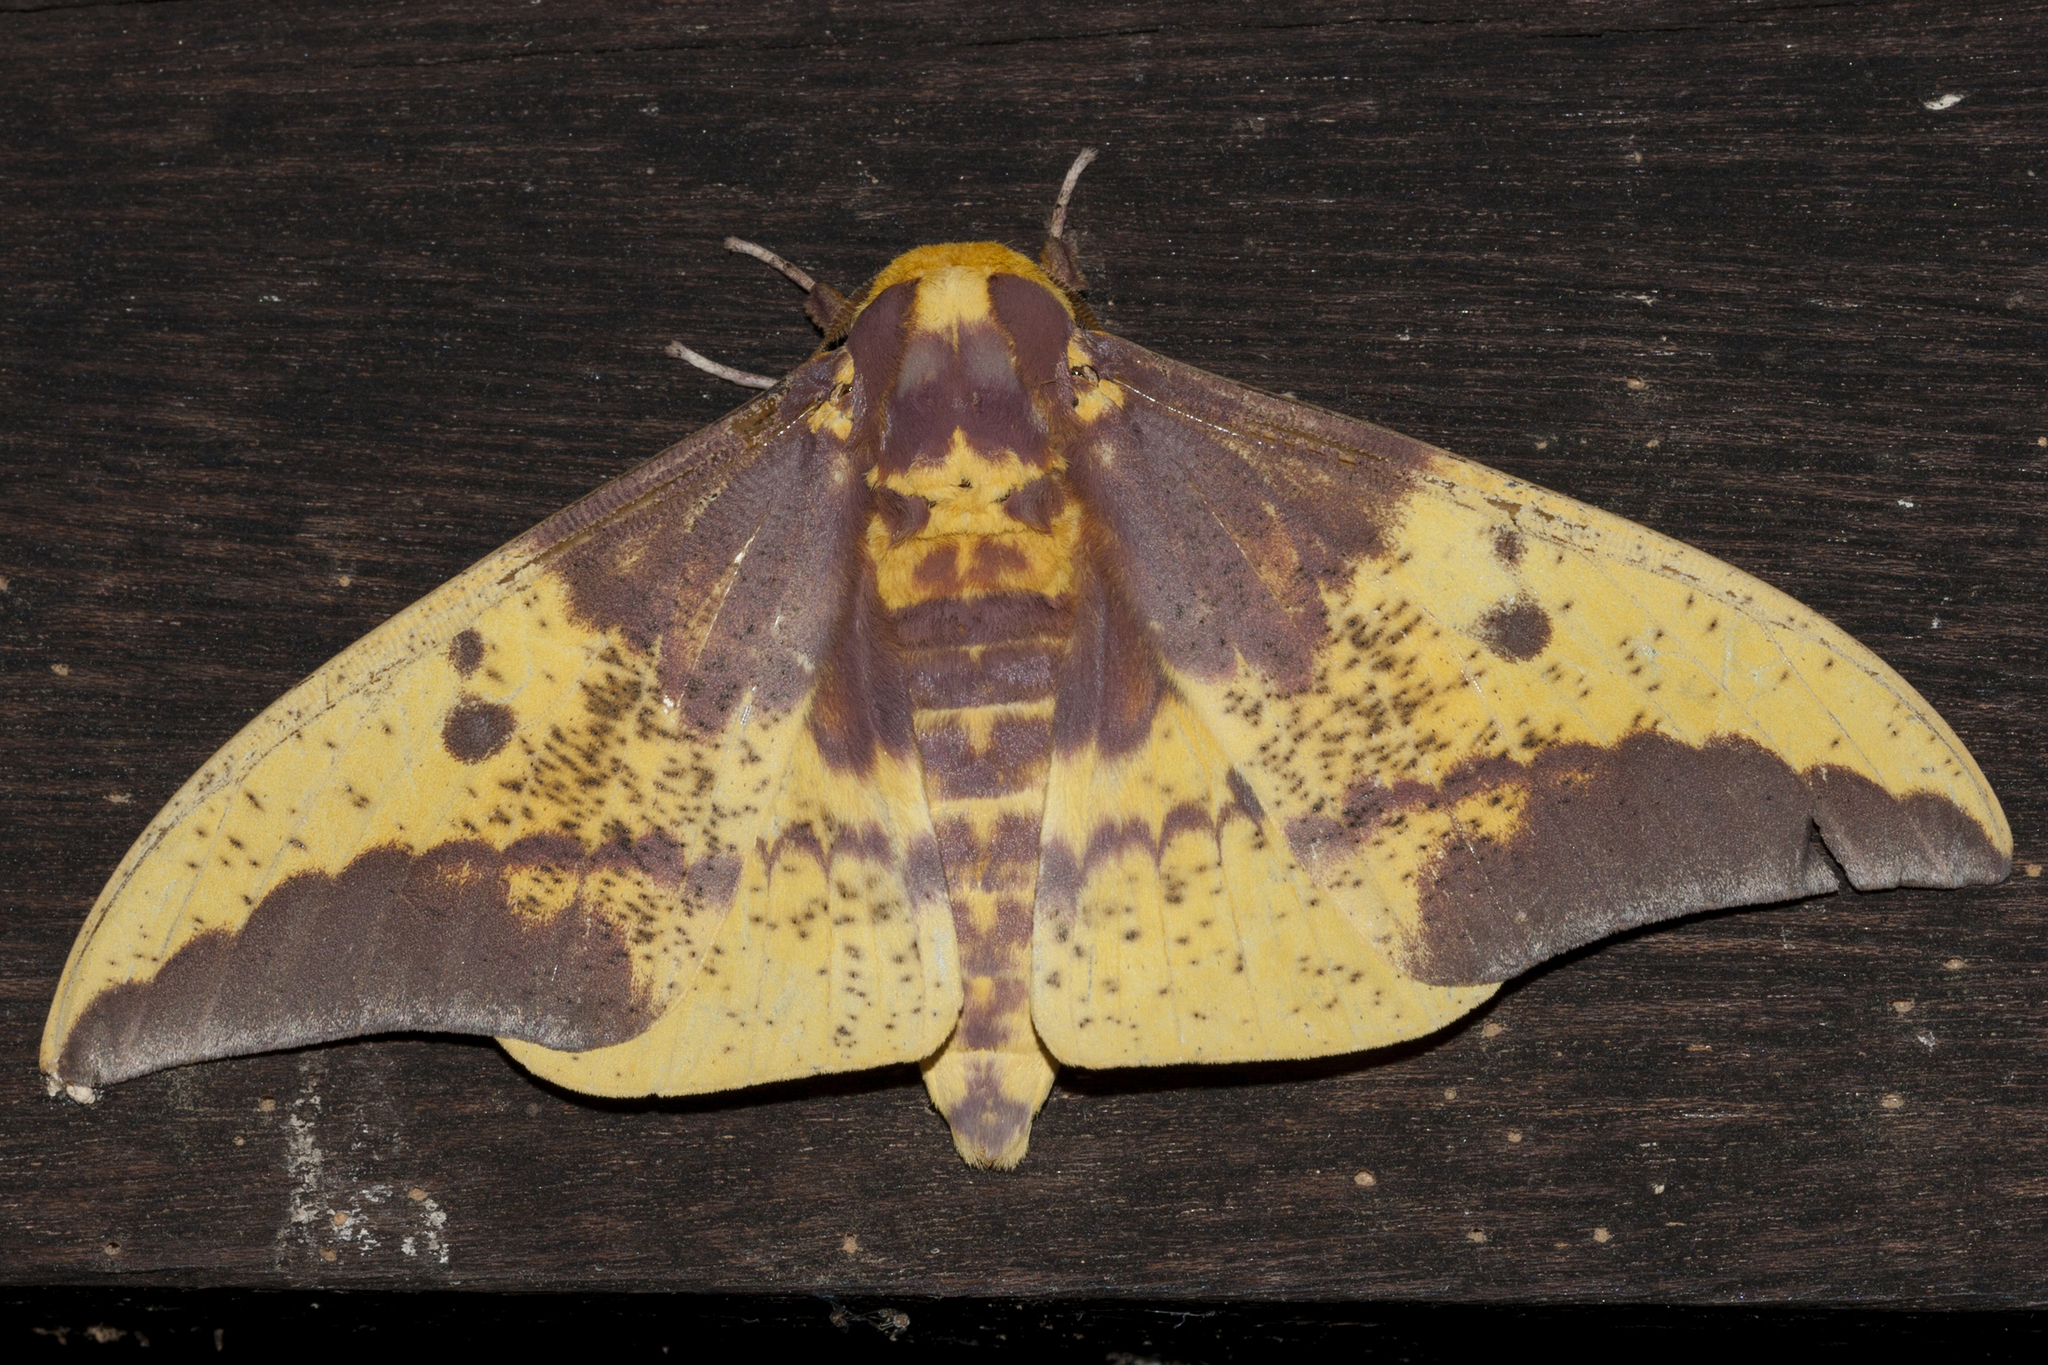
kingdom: Animalia
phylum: Arthropoda
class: Insecta
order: Lepidoptera
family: Saturniidae
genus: Eacles
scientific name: Eacles imperialis
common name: Imperial moth
